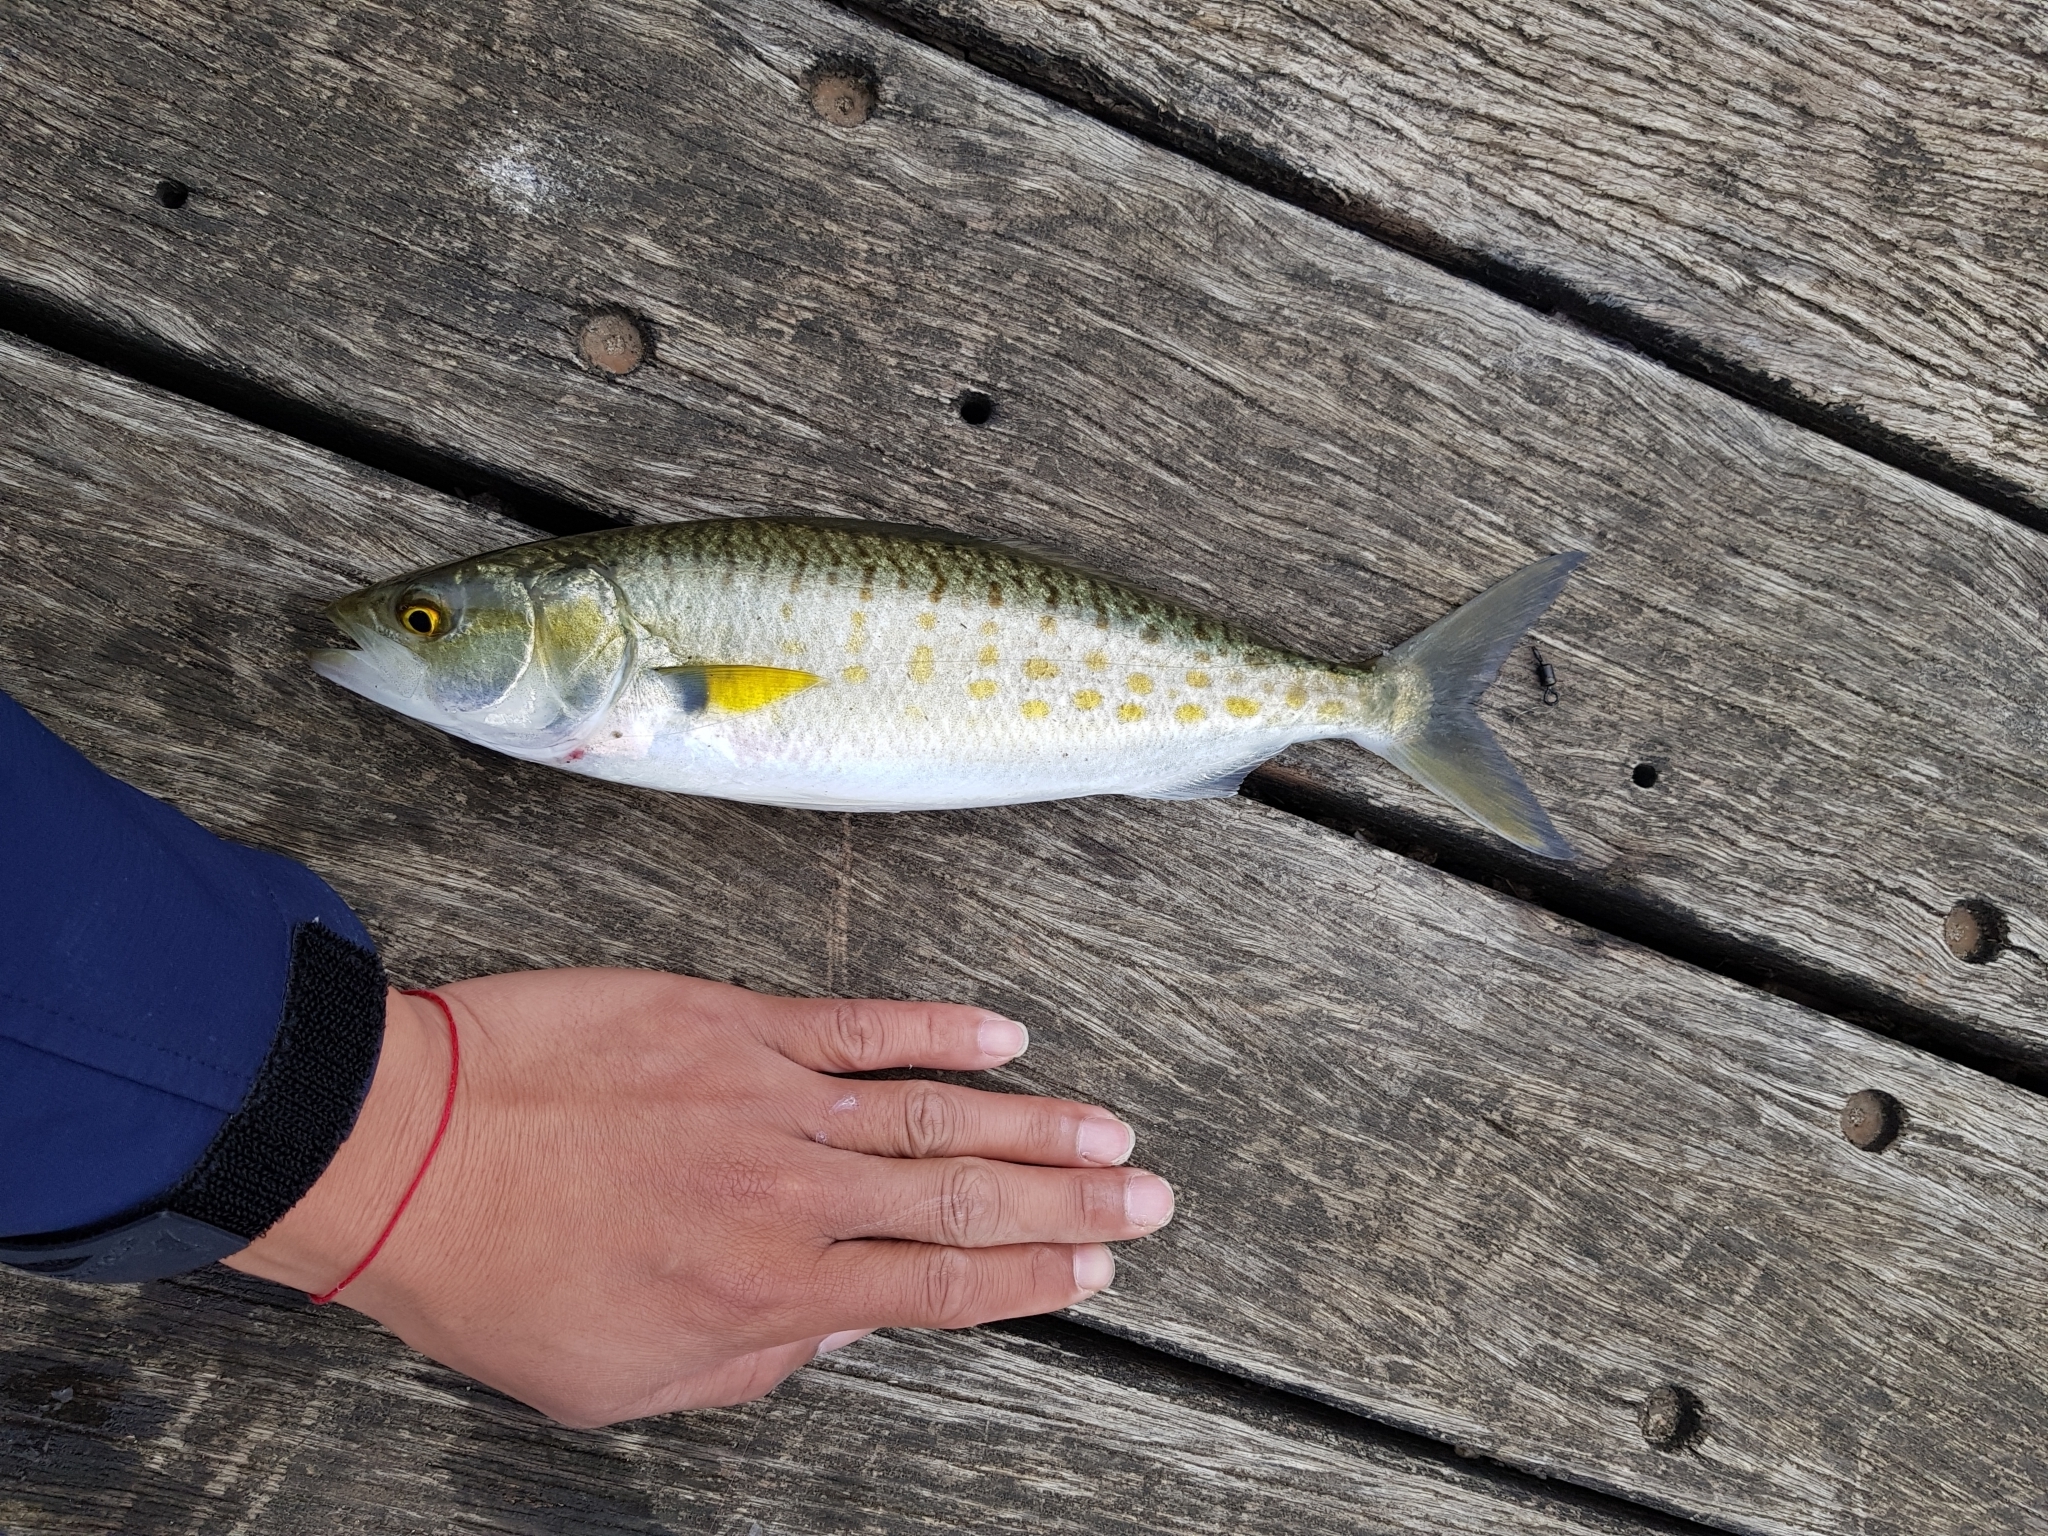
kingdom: Animalia
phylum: Chordata
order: Perciformes
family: Arripidae
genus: Arripis
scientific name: Arripis trutta
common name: Kahawai
